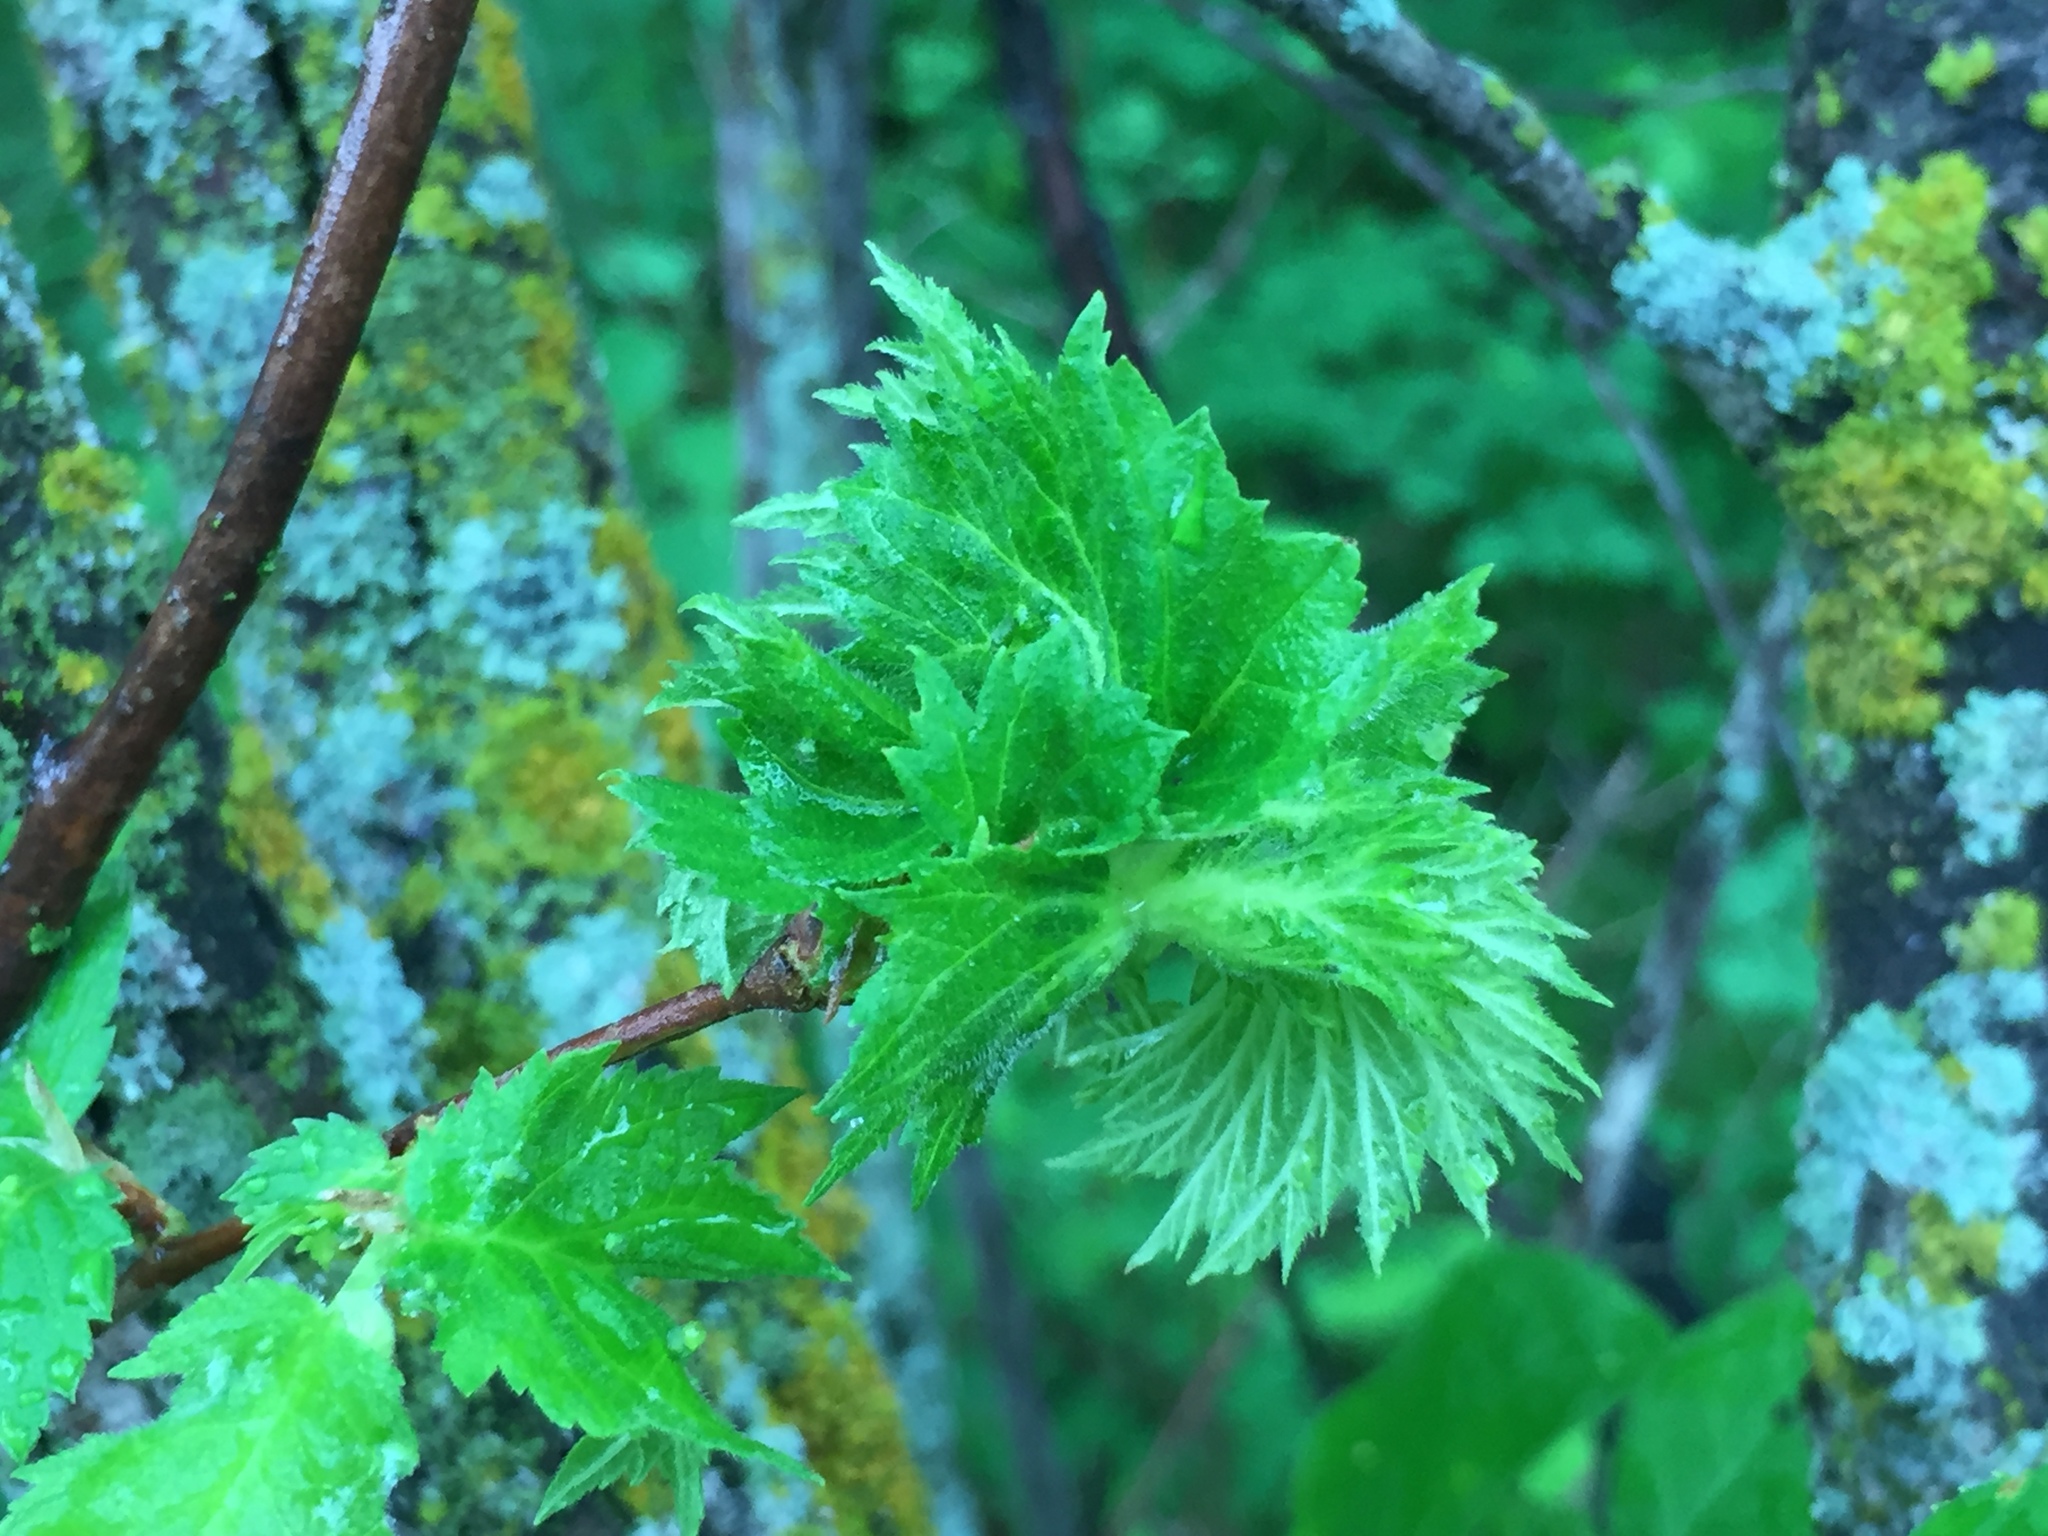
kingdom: Plantae
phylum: Tracheophyta
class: Magnoliopsida
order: Fagales
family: Betulaceae
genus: Corylus
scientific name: Corylus americana
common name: American hazel
